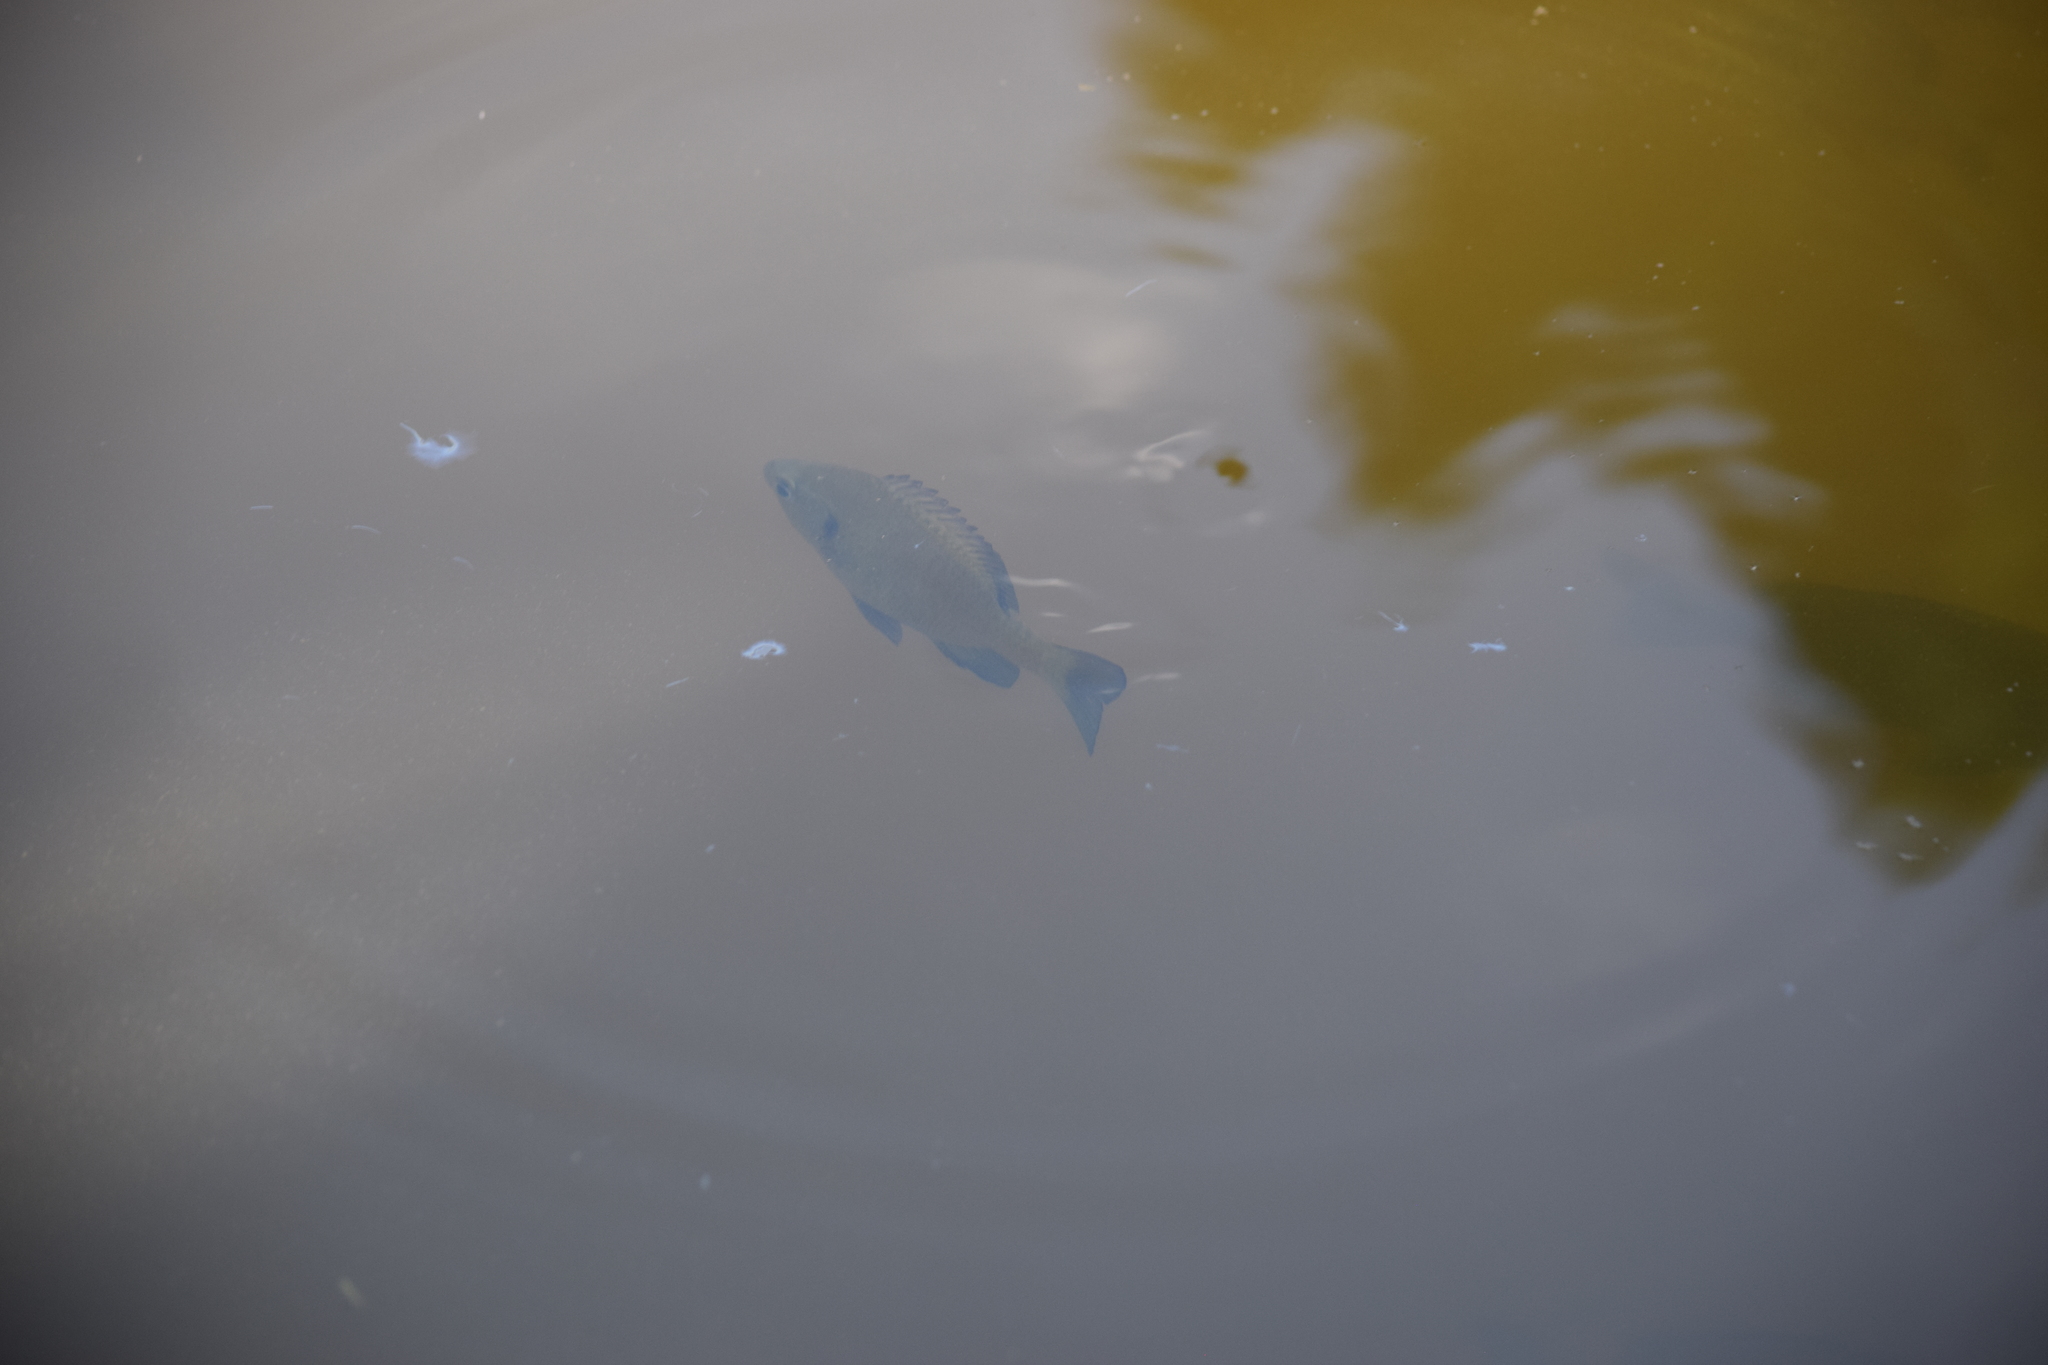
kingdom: Animalia
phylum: Chordata
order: Perciformes
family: Centrarchidae
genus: Lepomis
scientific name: Lepomis macrochirus
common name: Bluegill
